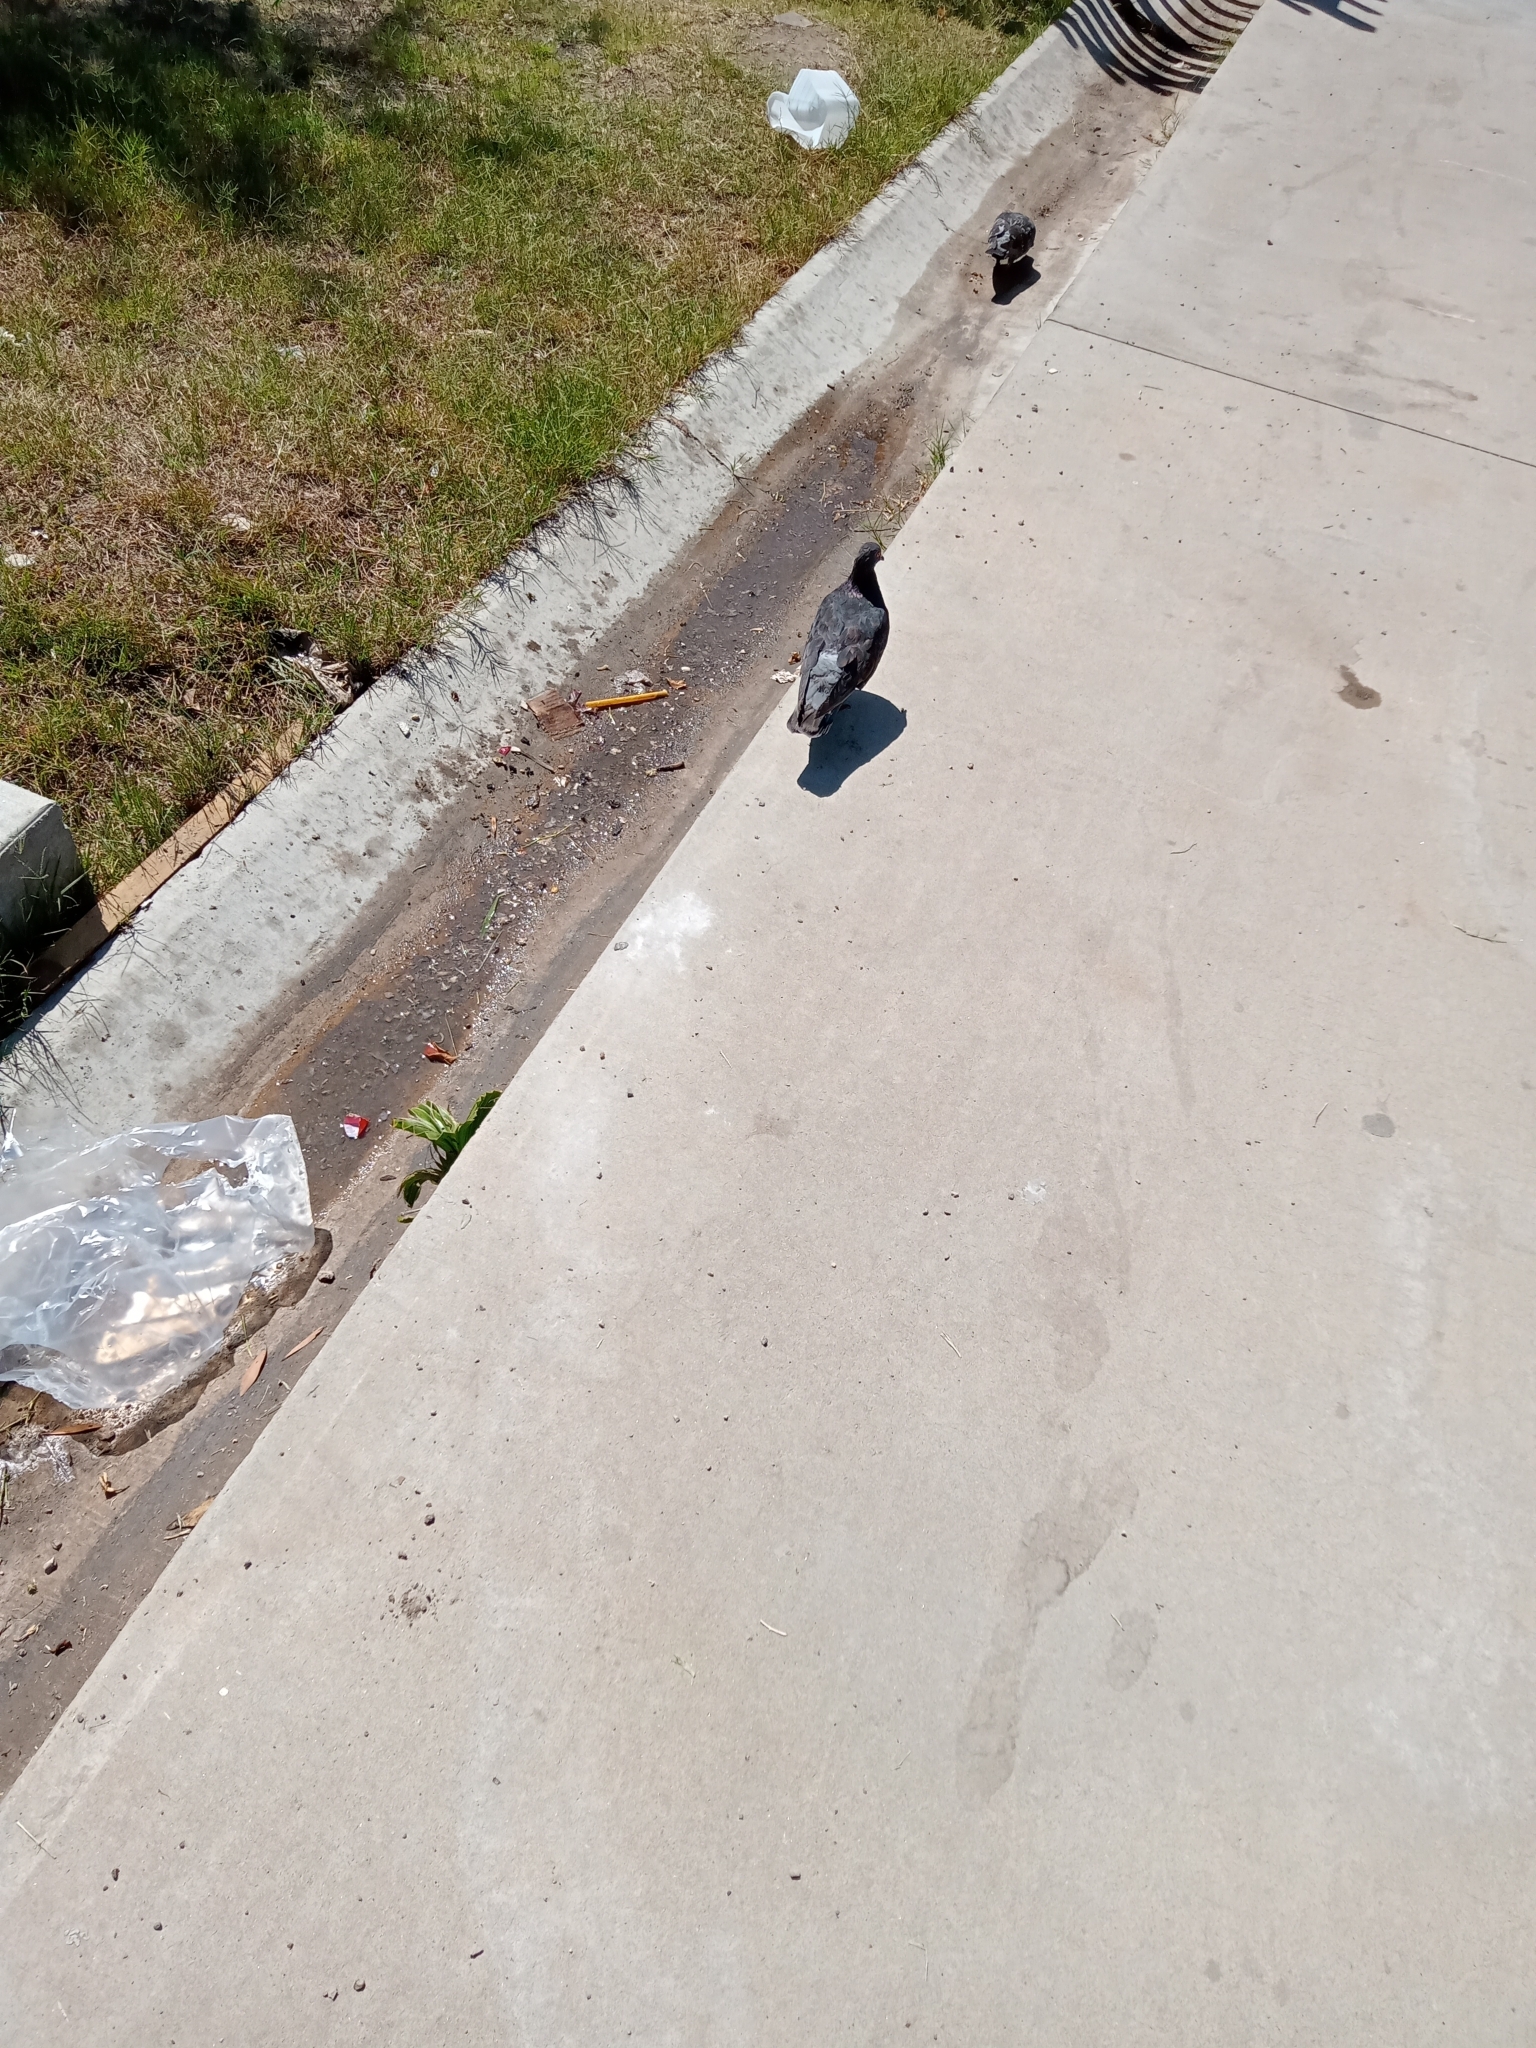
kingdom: Animalia
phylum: Chordata
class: Aves
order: Columbiformes
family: Columbidae
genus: Columba
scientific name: Columba livia
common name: Rock pigeon
